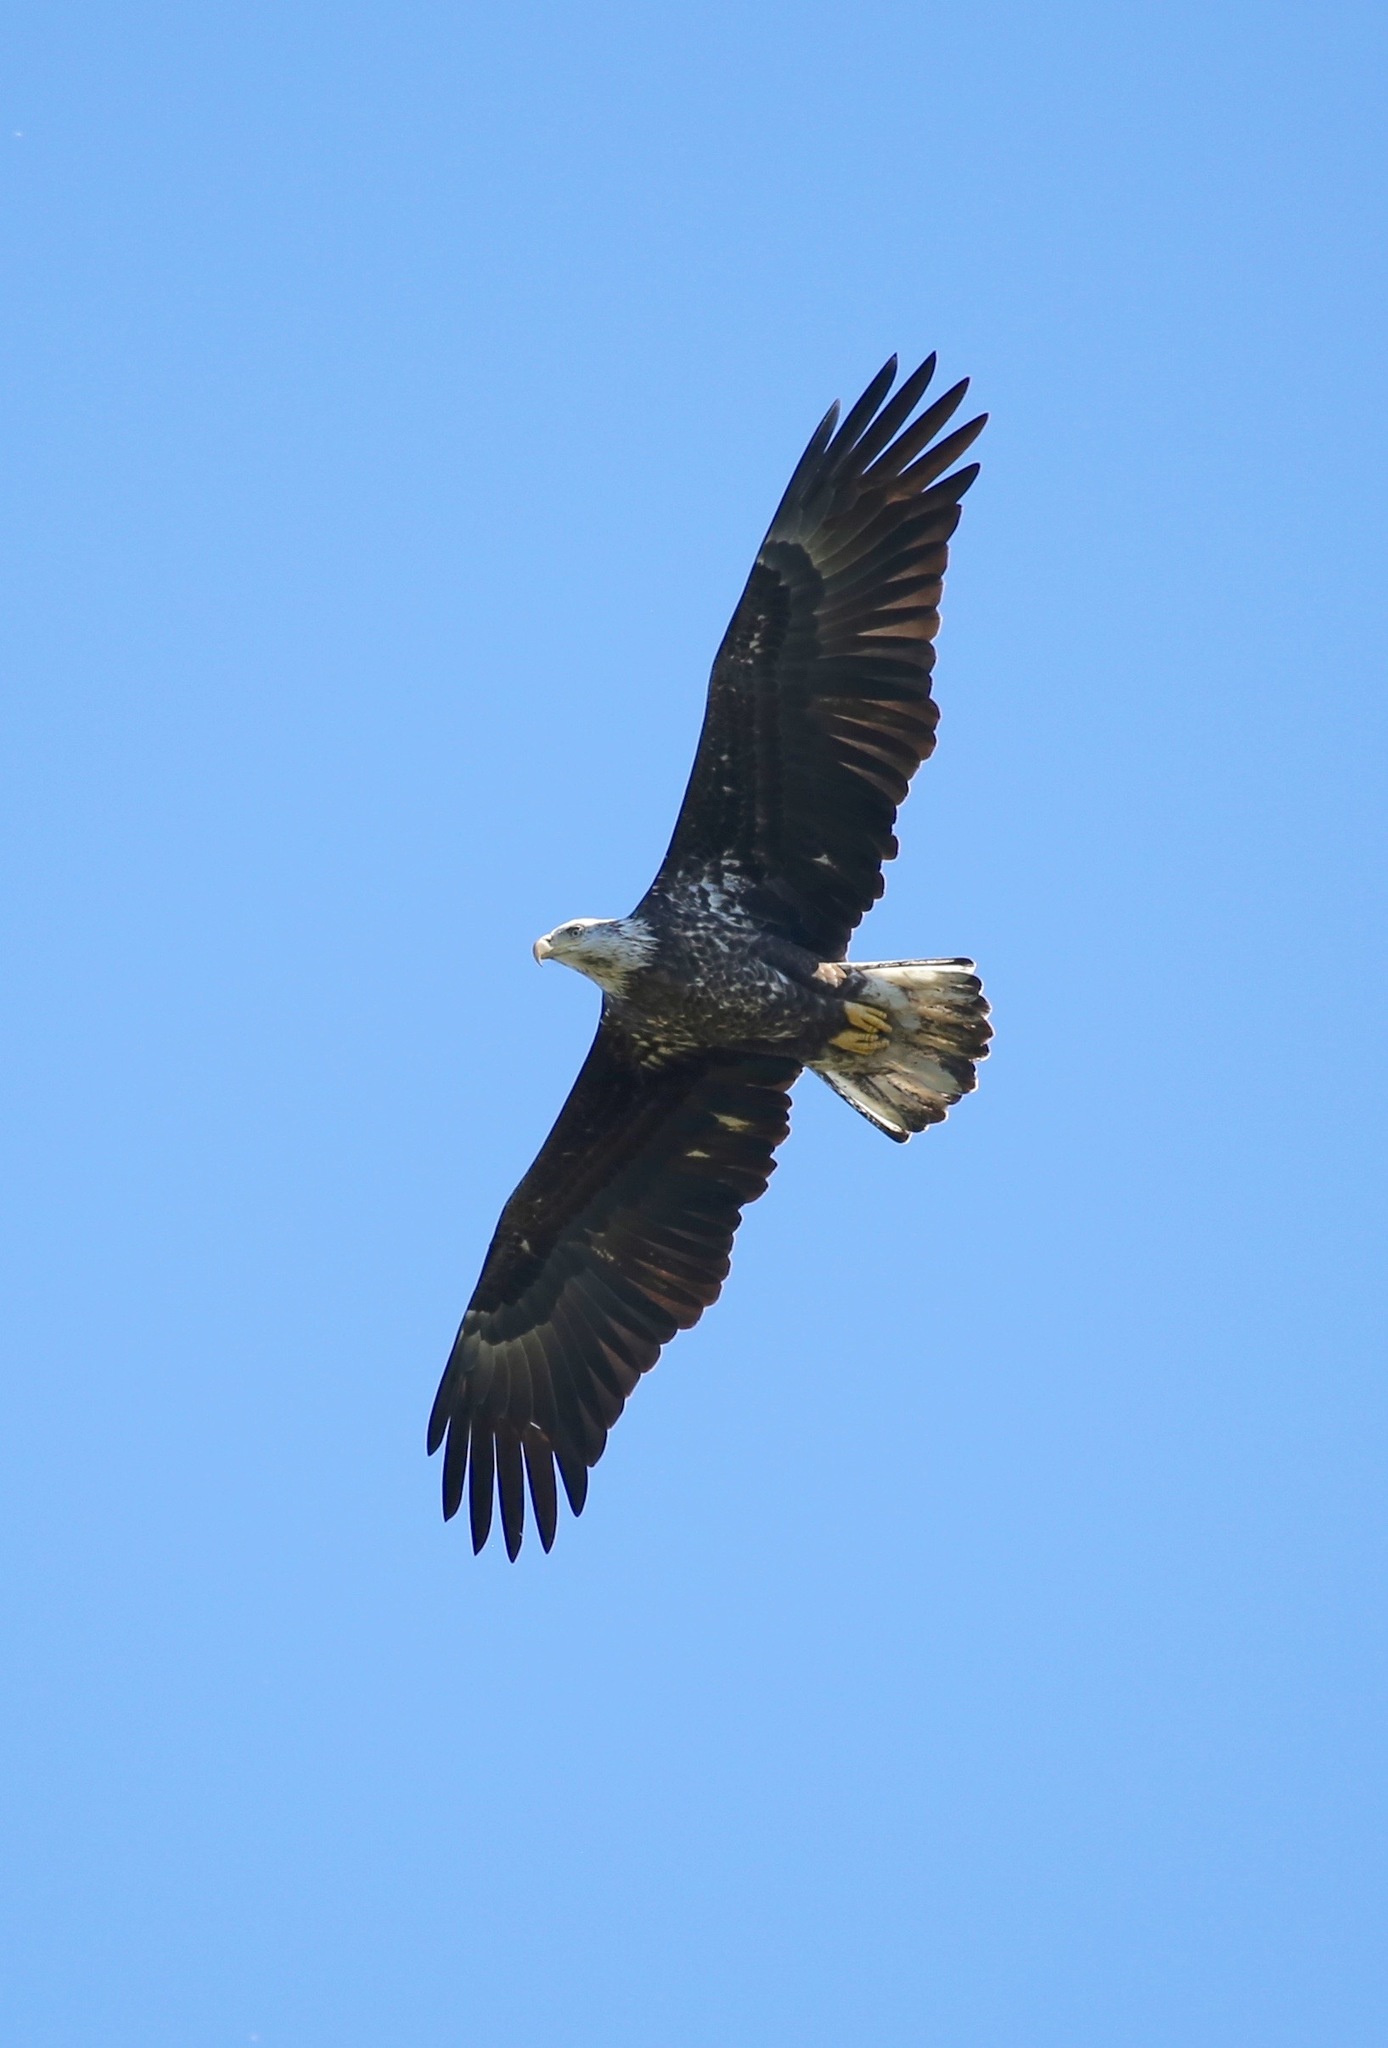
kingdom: Animalia
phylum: Chordata
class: Aves
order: Accipitriformes
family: Accipitridae
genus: Haliaeetus
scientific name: Haliaeetus leucocephalus
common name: Bald eagle
